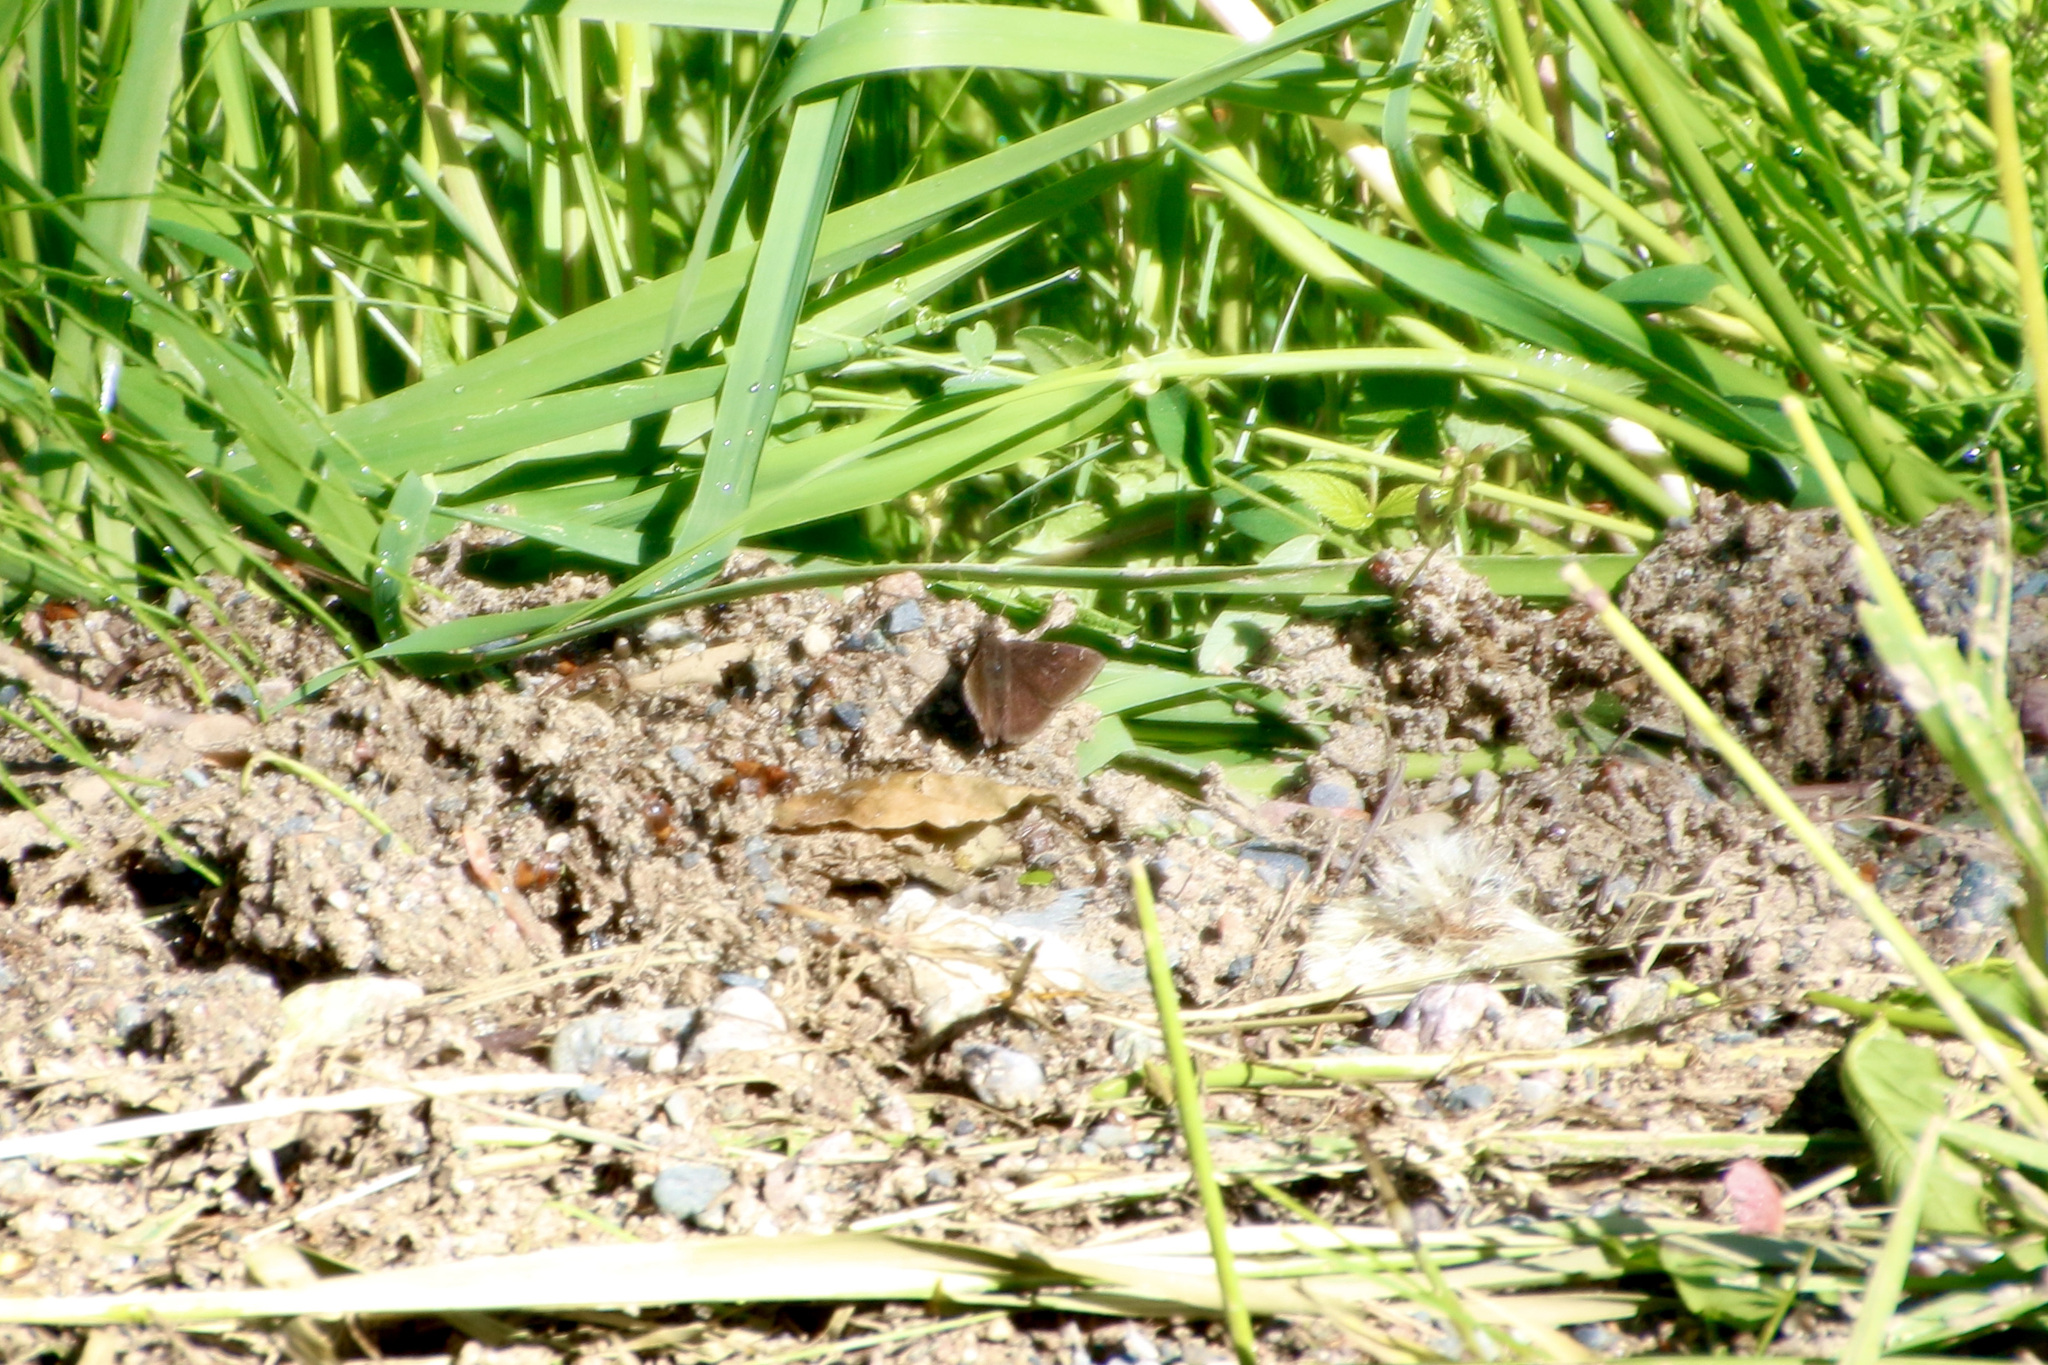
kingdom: Animalia
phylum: Arthropoda
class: Insecta
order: Lepidoptera
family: Hesperiidae
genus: Thorybes
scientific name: Thorybes pylades
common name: Northern cloudywing
